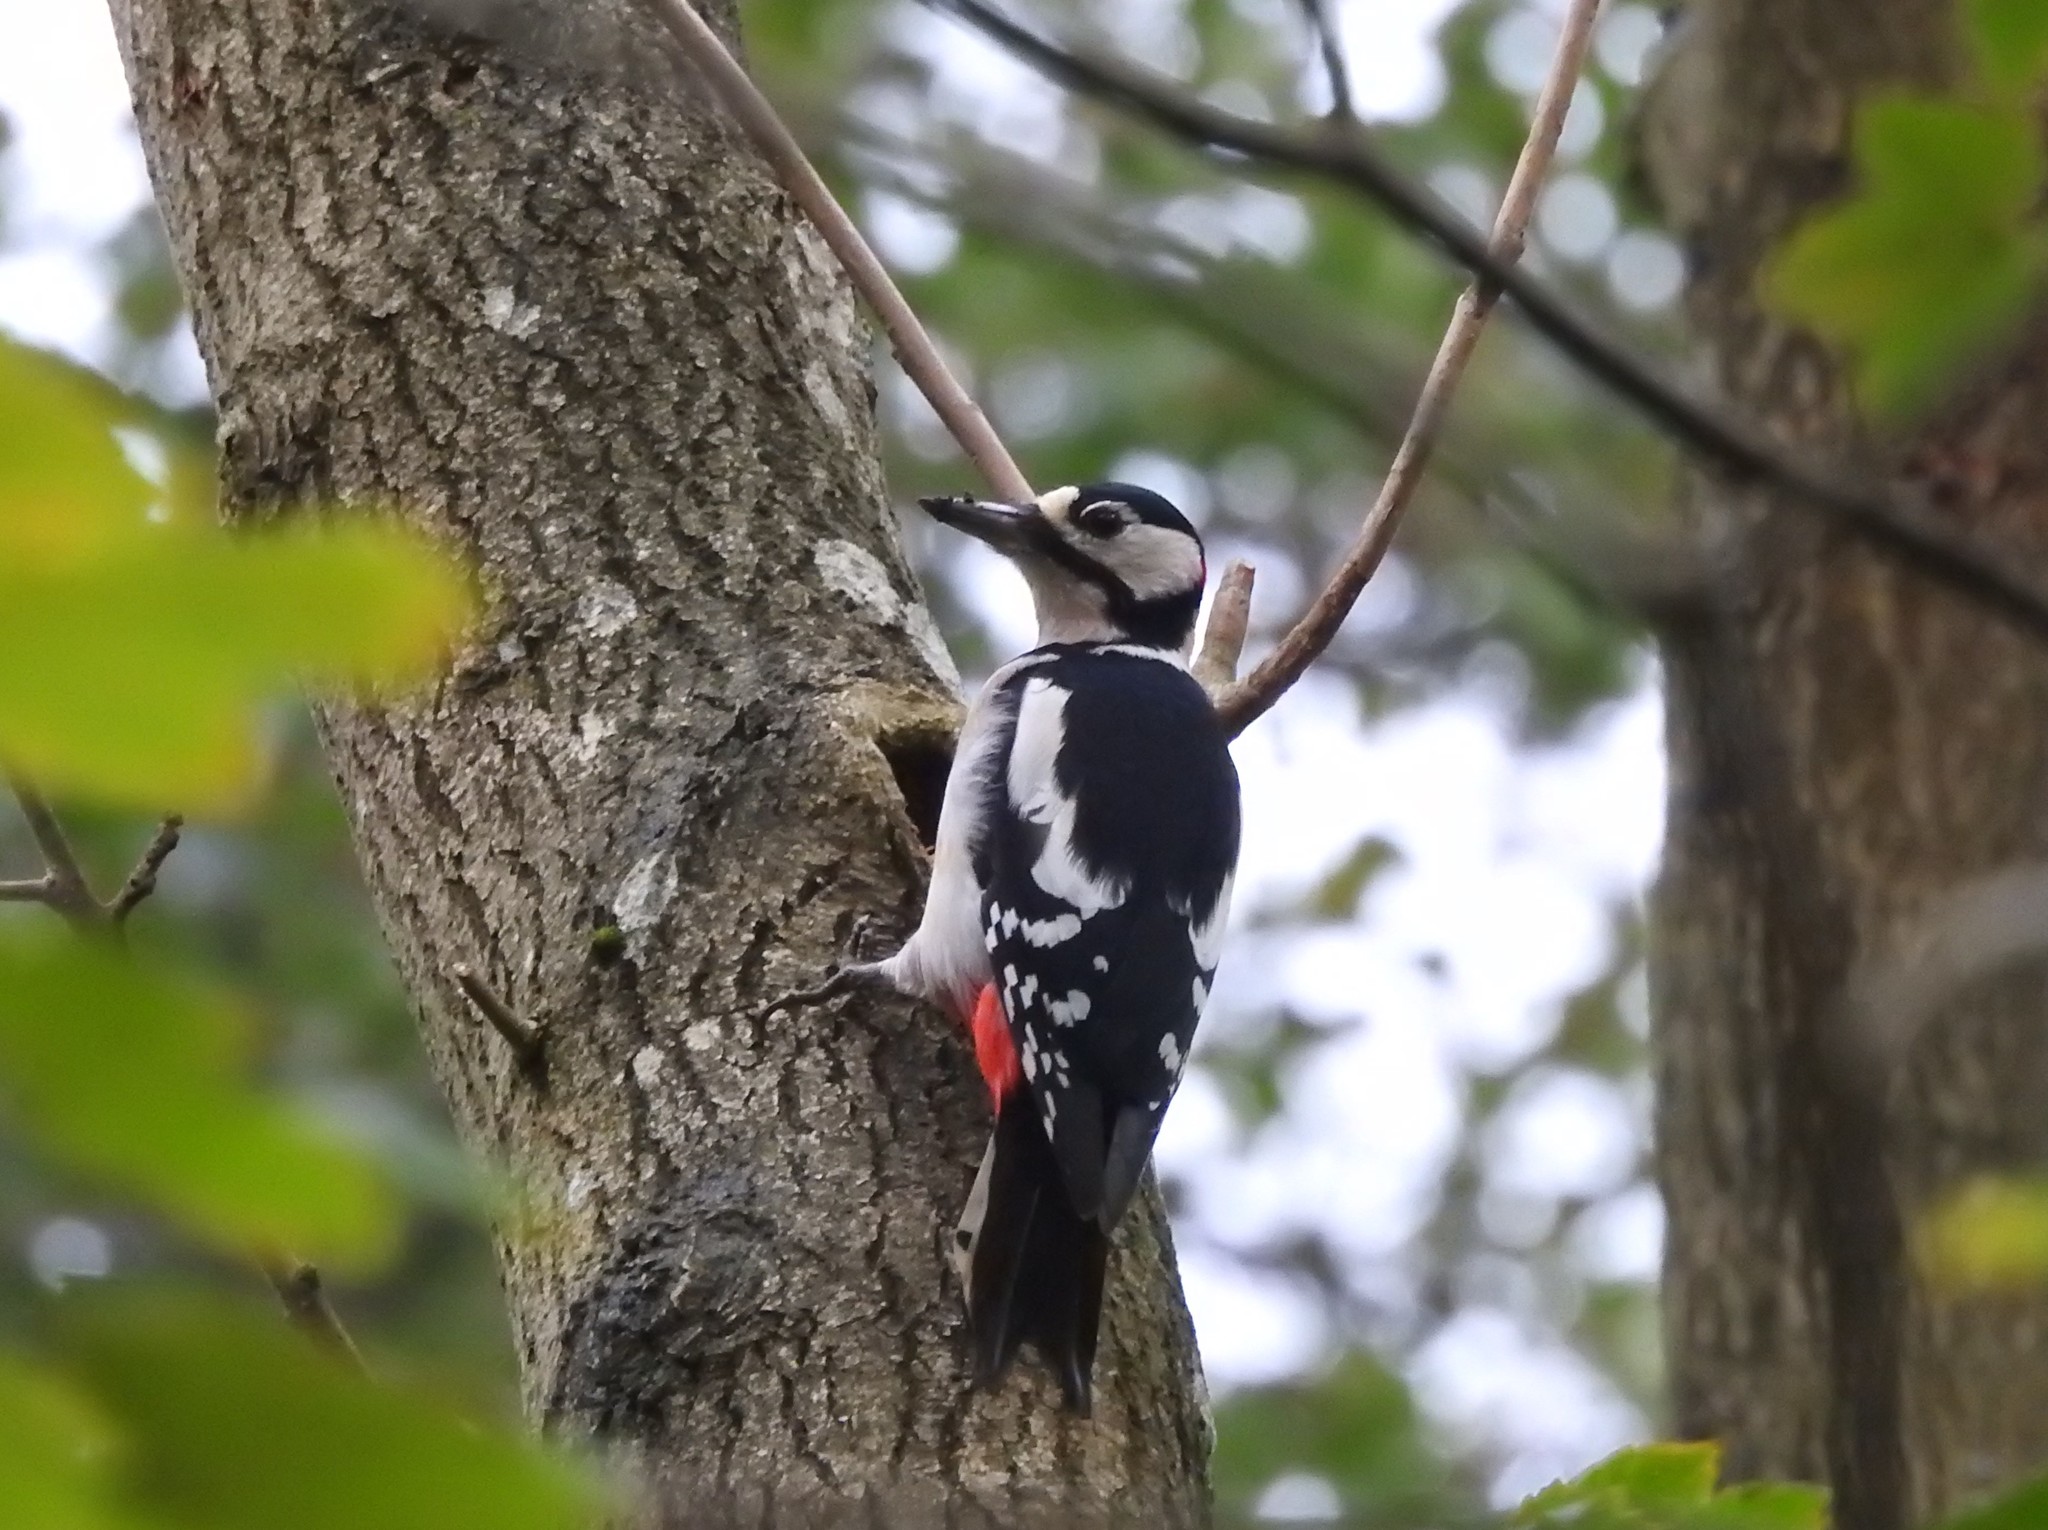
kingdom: Animalia
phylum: Chordata
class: Aves
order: Piciformes
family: Picidae
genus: Dendrocopos
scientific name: Dendrocopos major
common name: Great spotted woodpecker
